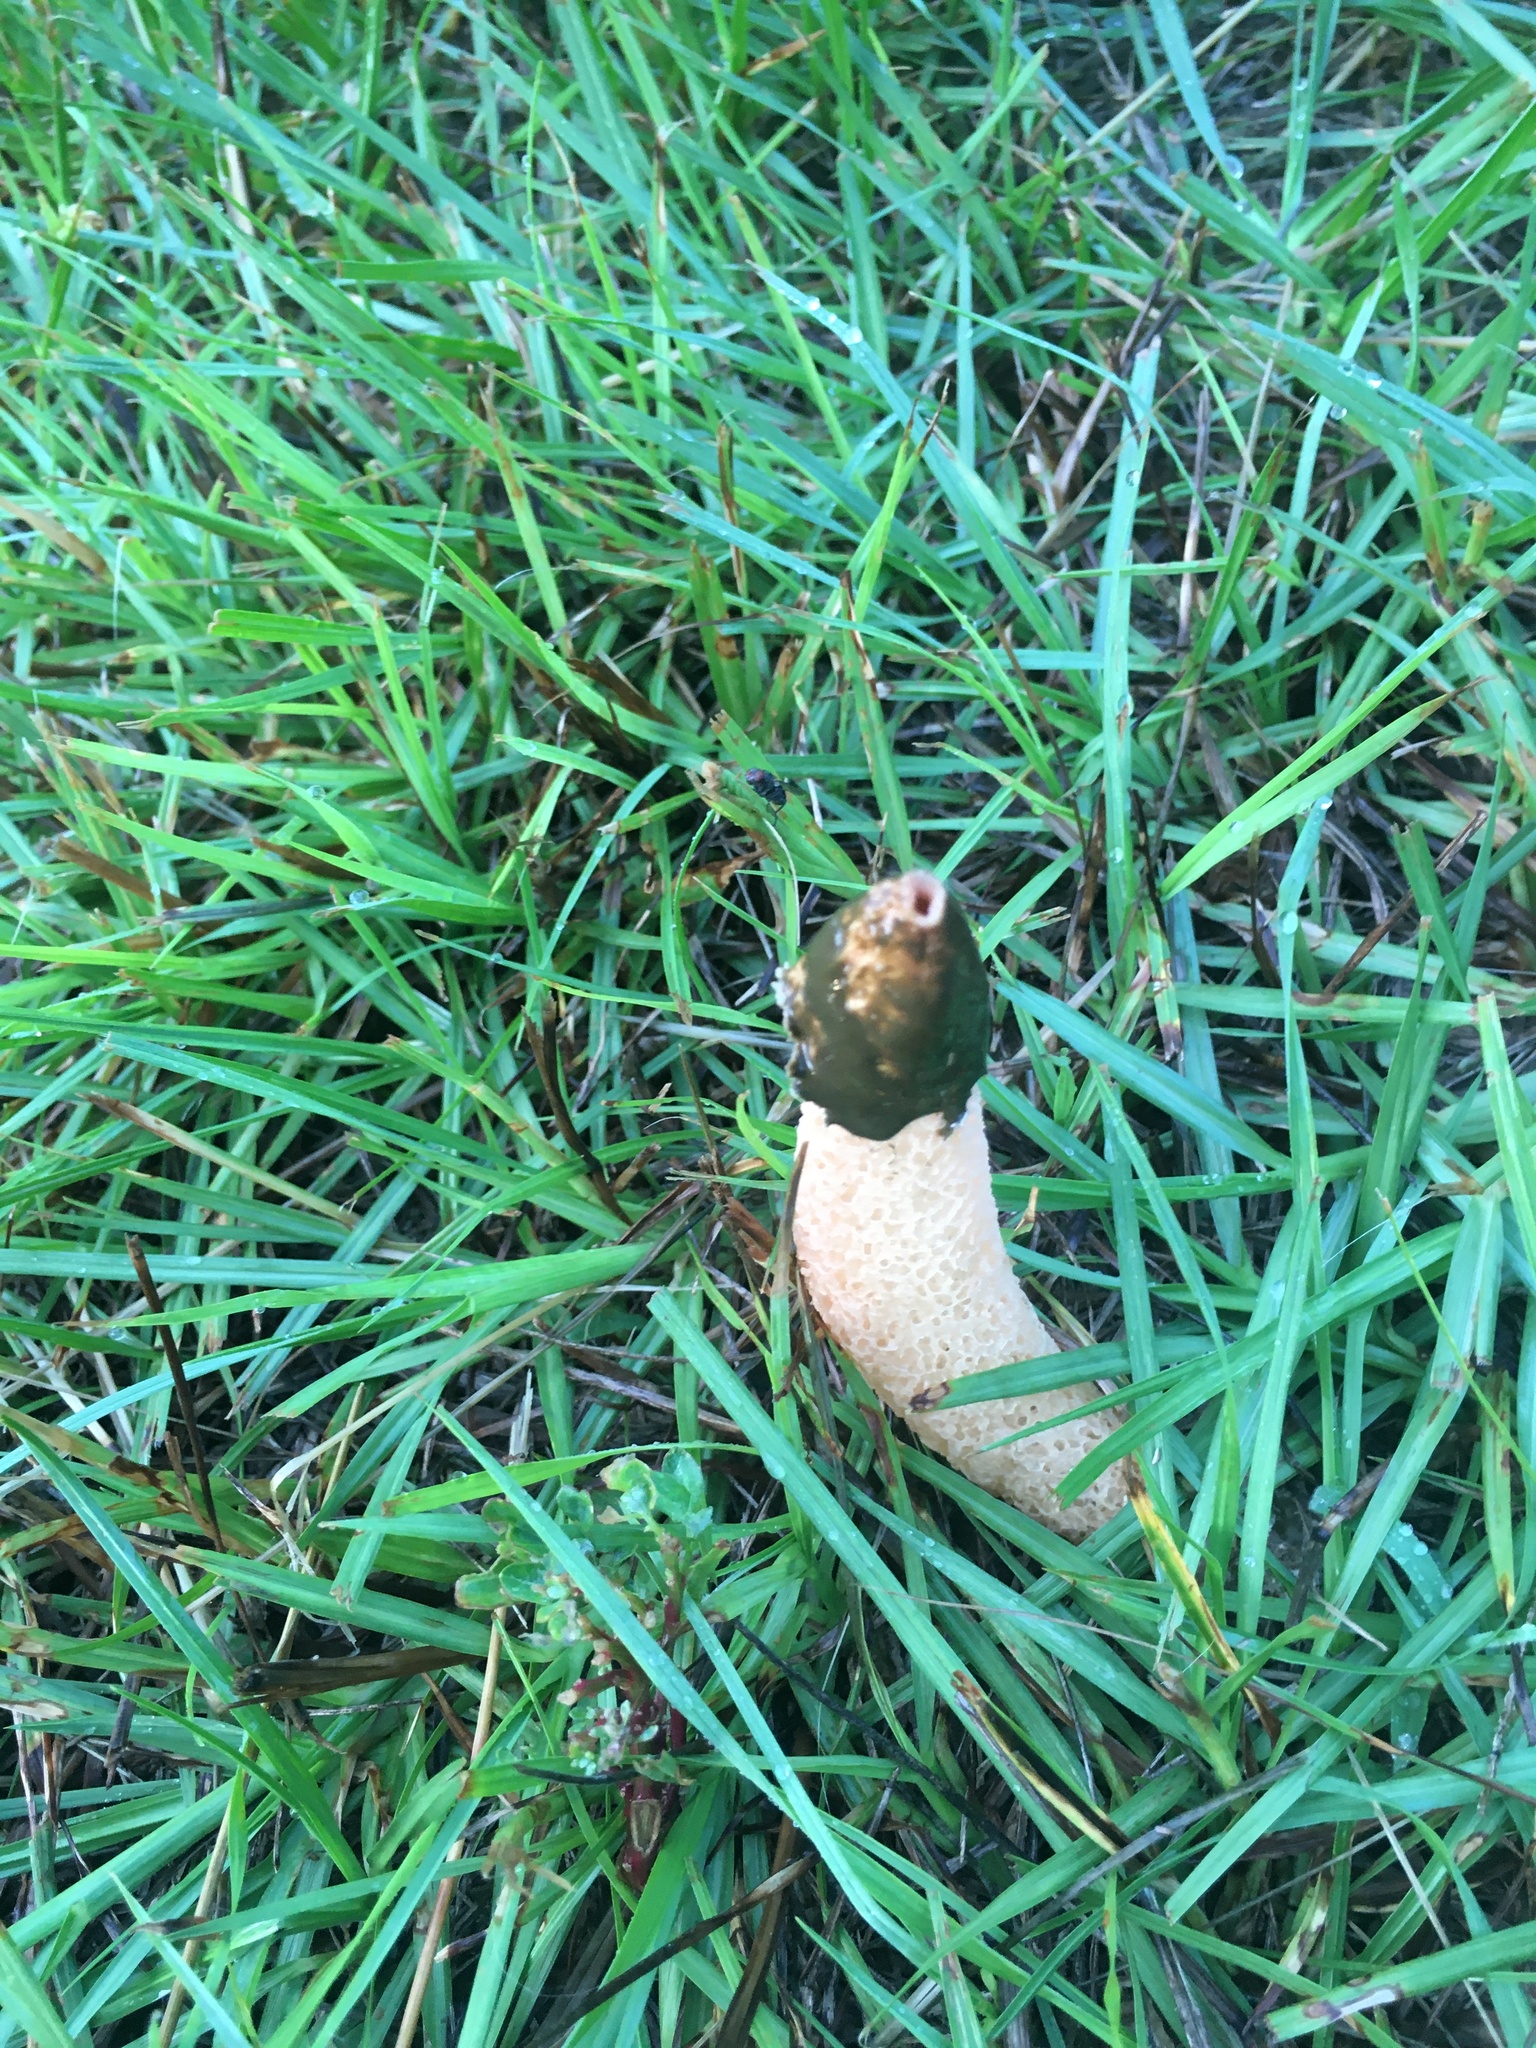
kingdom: Fungi
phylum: Basidiomycota
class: Agaricomycetes
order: Phallales
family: Phallaceae
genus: Phallus
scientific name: Phallus rubicundus
